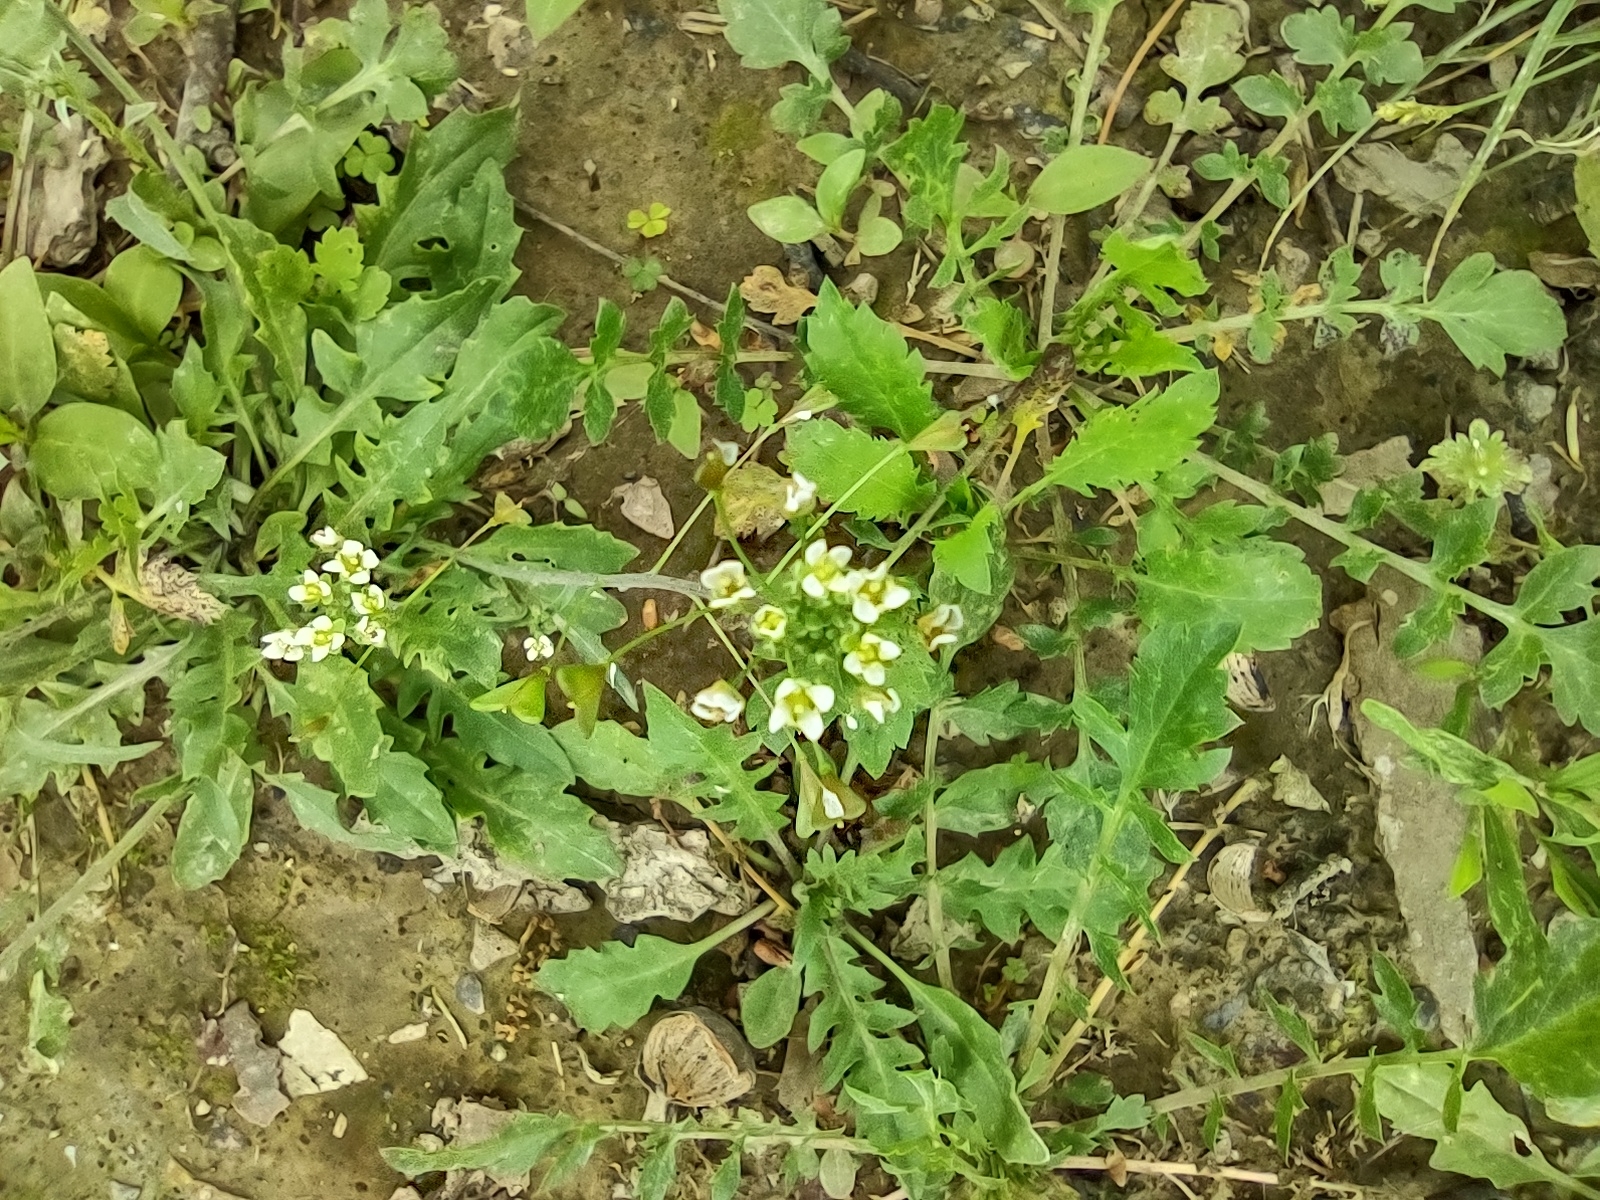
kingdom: Plantae
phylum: Tracheophyta
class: Magnoliopsida
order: Brassicales
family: Brassicaceae
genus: Capsella
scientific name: Capsella bursa-pastoris
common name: Shepherd's purse
